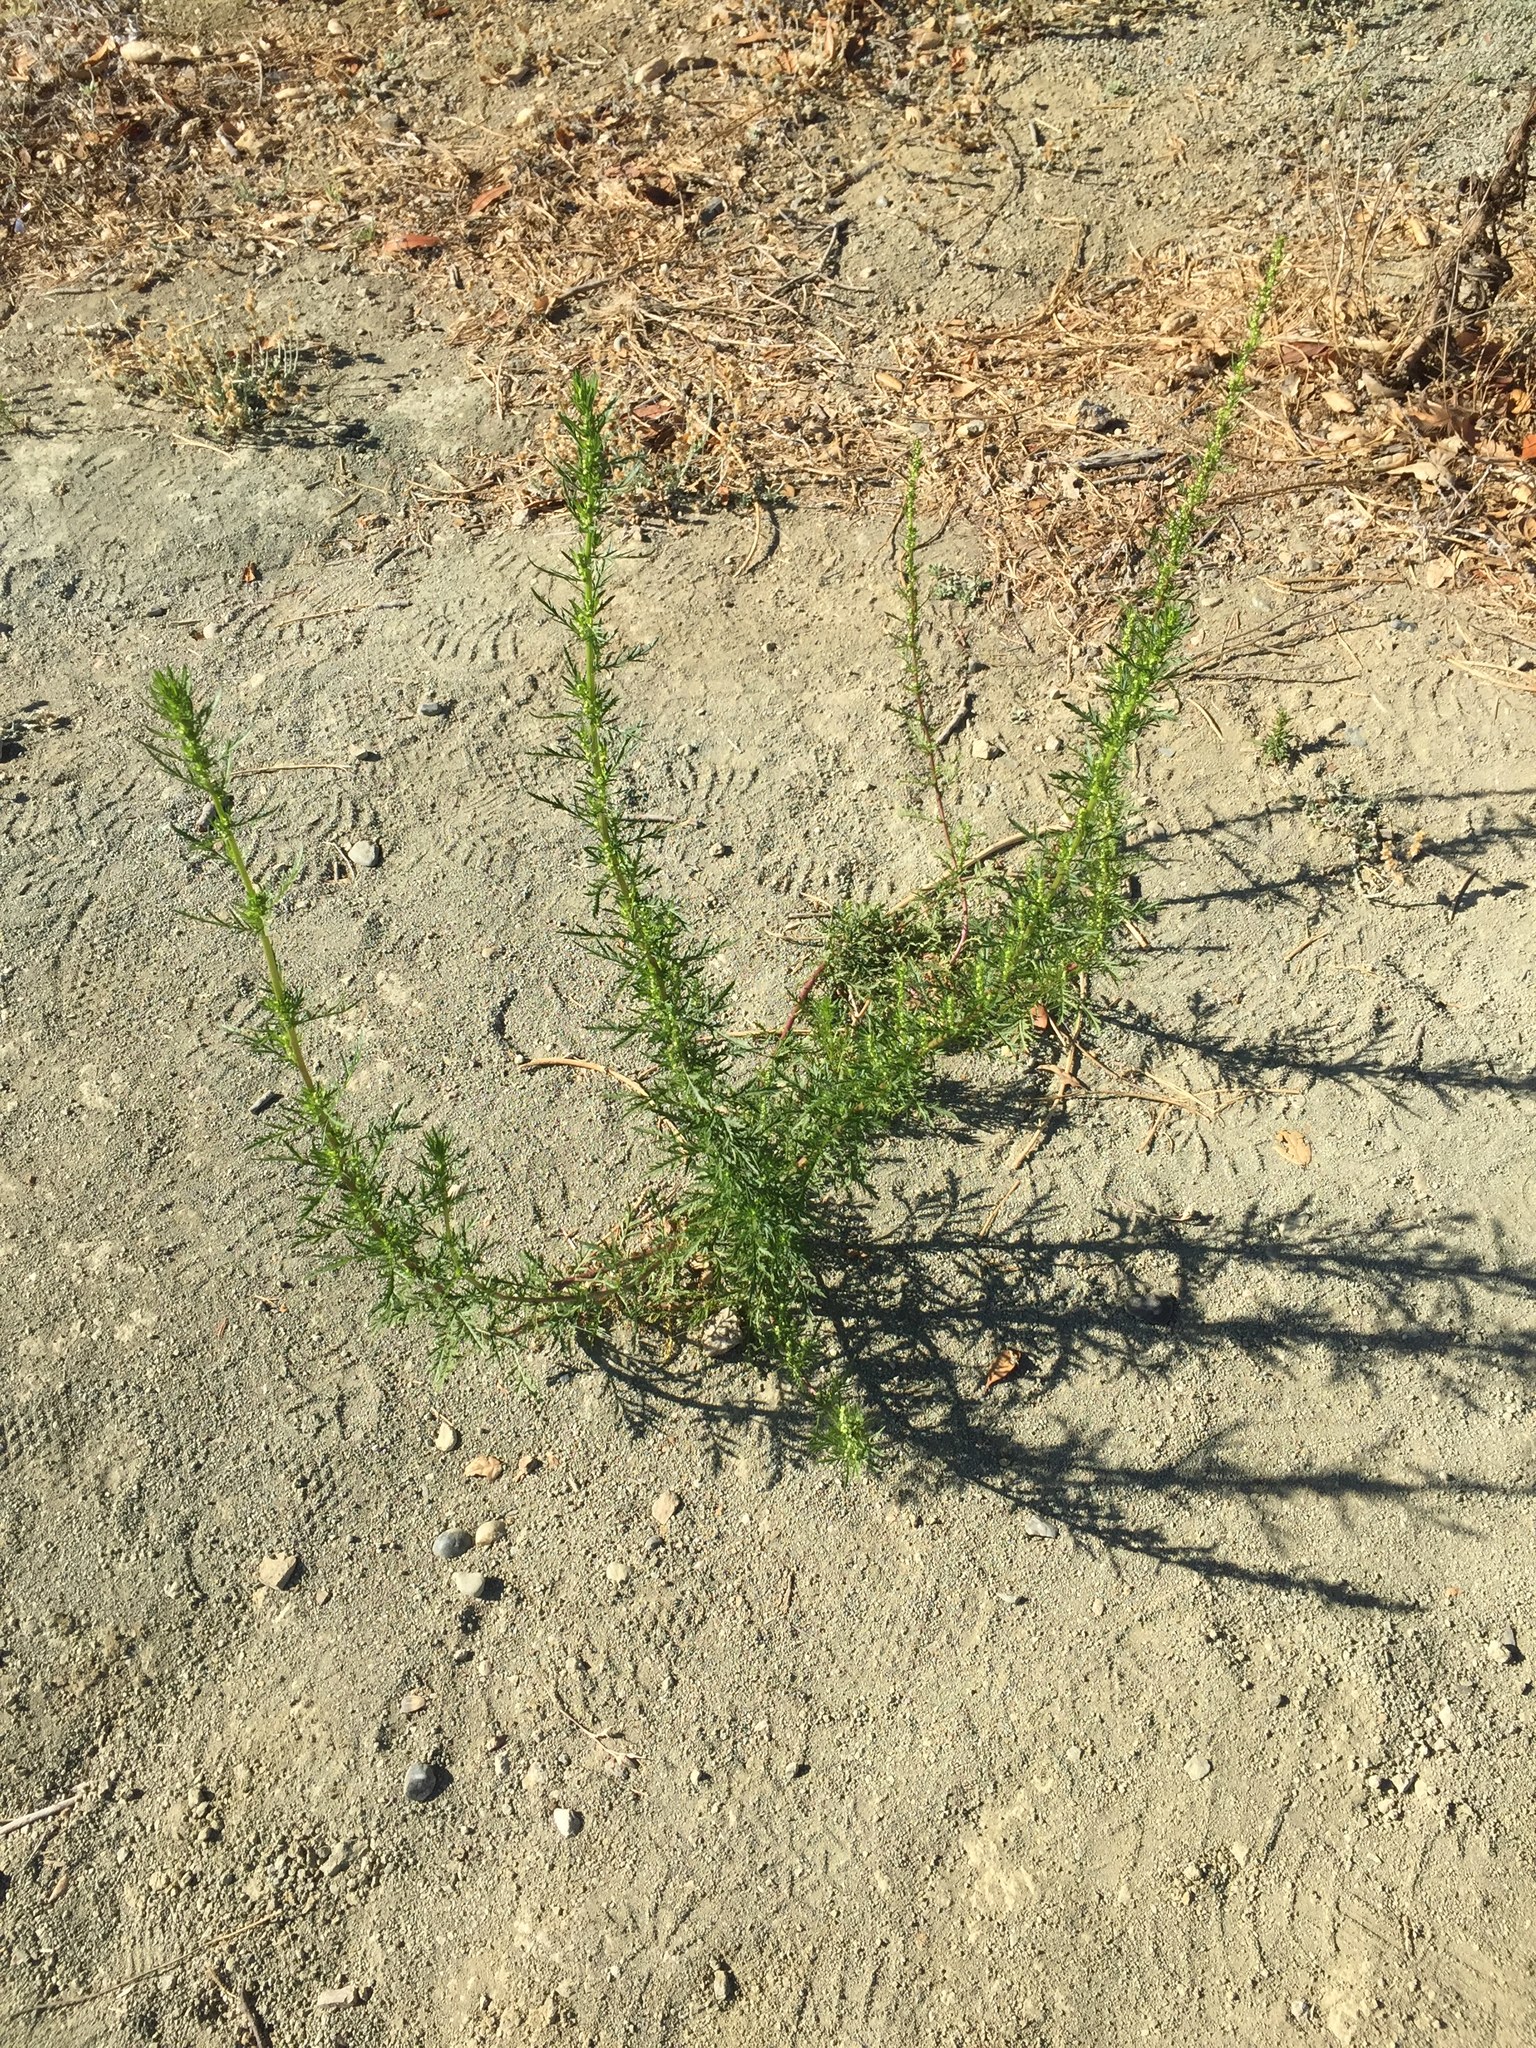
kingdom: Plantae
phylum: Tracheophyta
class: Magnoliopsida
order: Asterales
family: Asteraceae
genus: Artemisia
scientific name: Artemisia biennis
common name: Biennial wormwood
